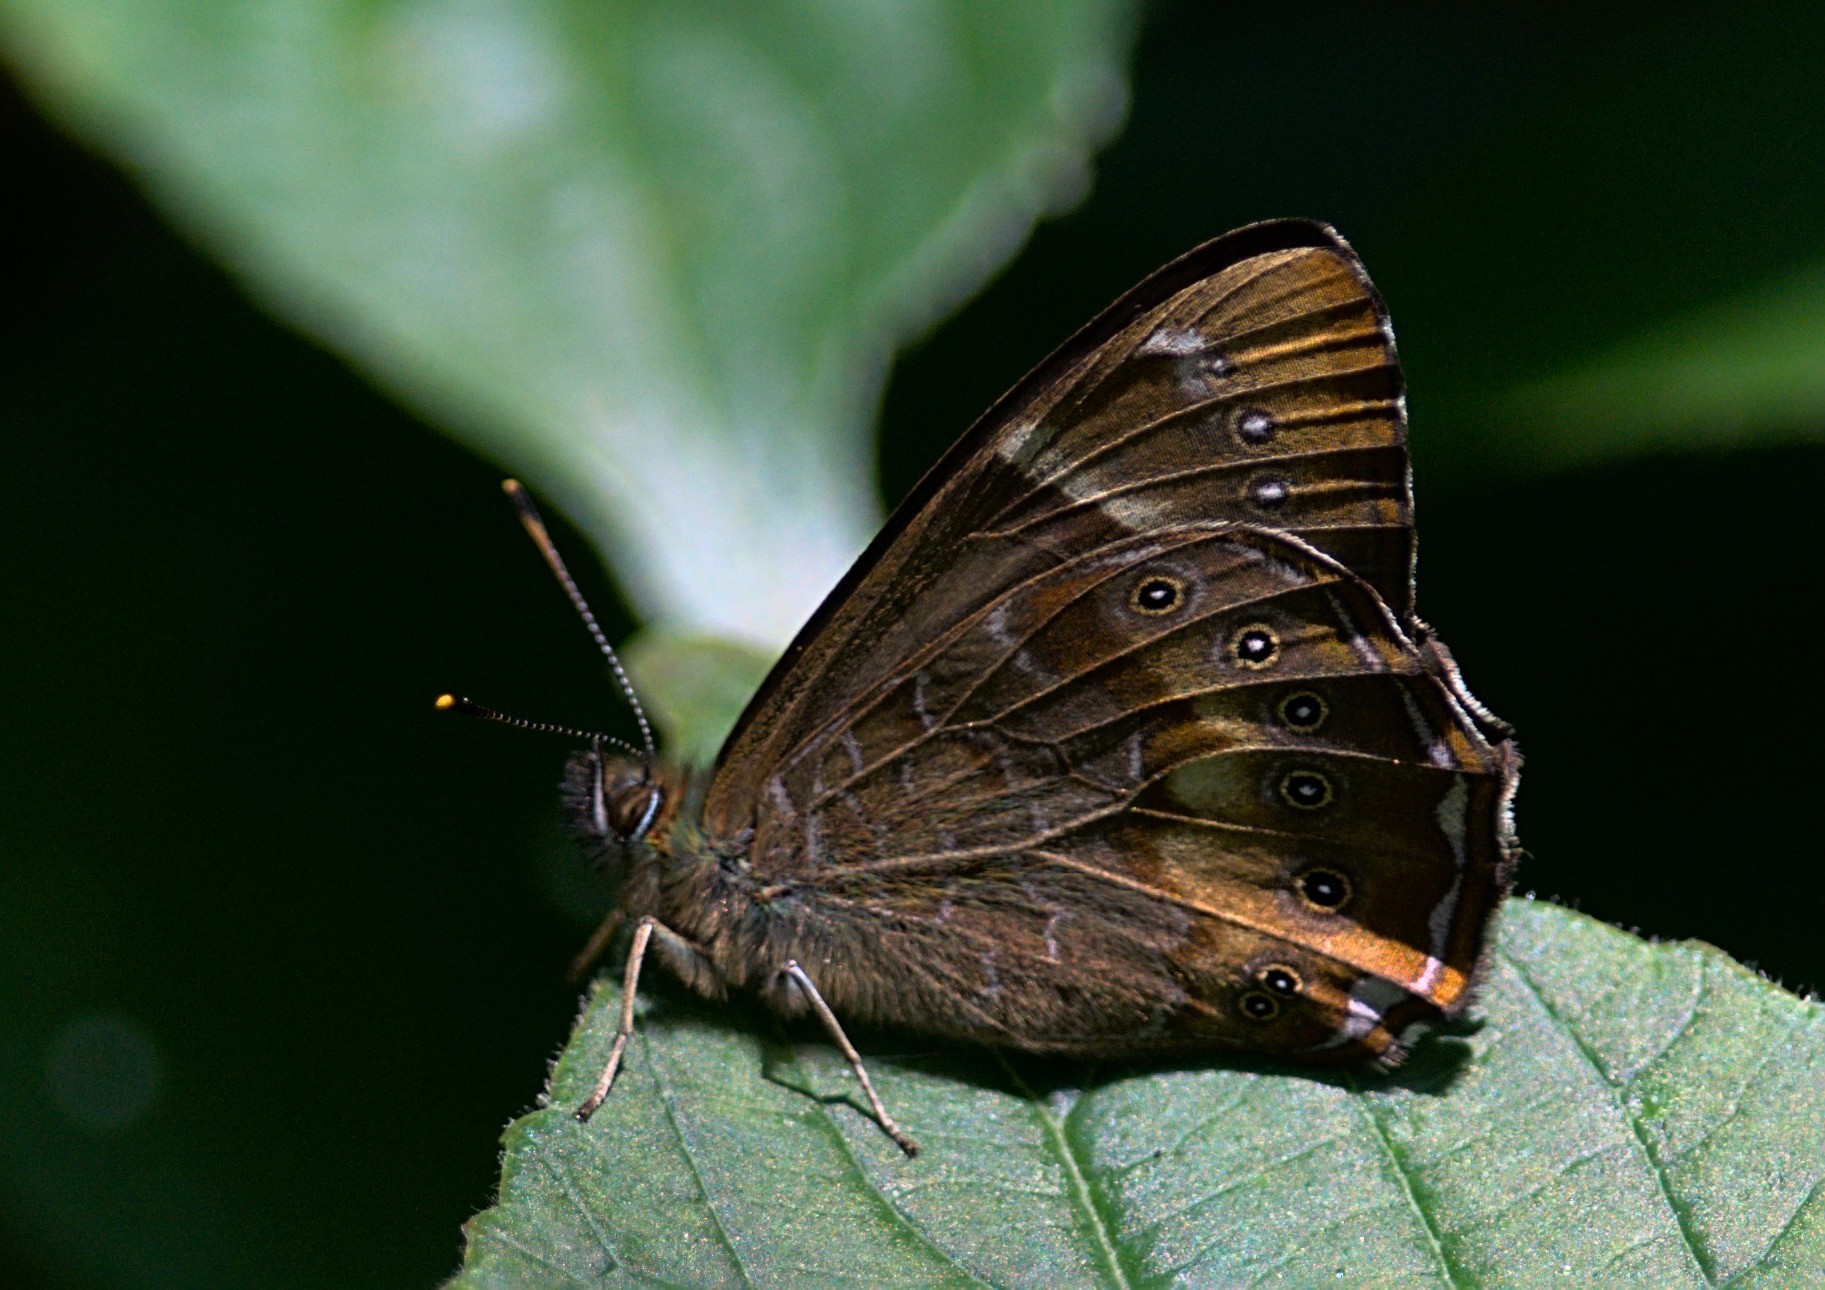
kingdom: Animalia
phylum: Arthropoda
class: Insecta
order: Lepidoptera
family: Nymphalidae
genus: Lethe
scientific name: Lethe nicetas
